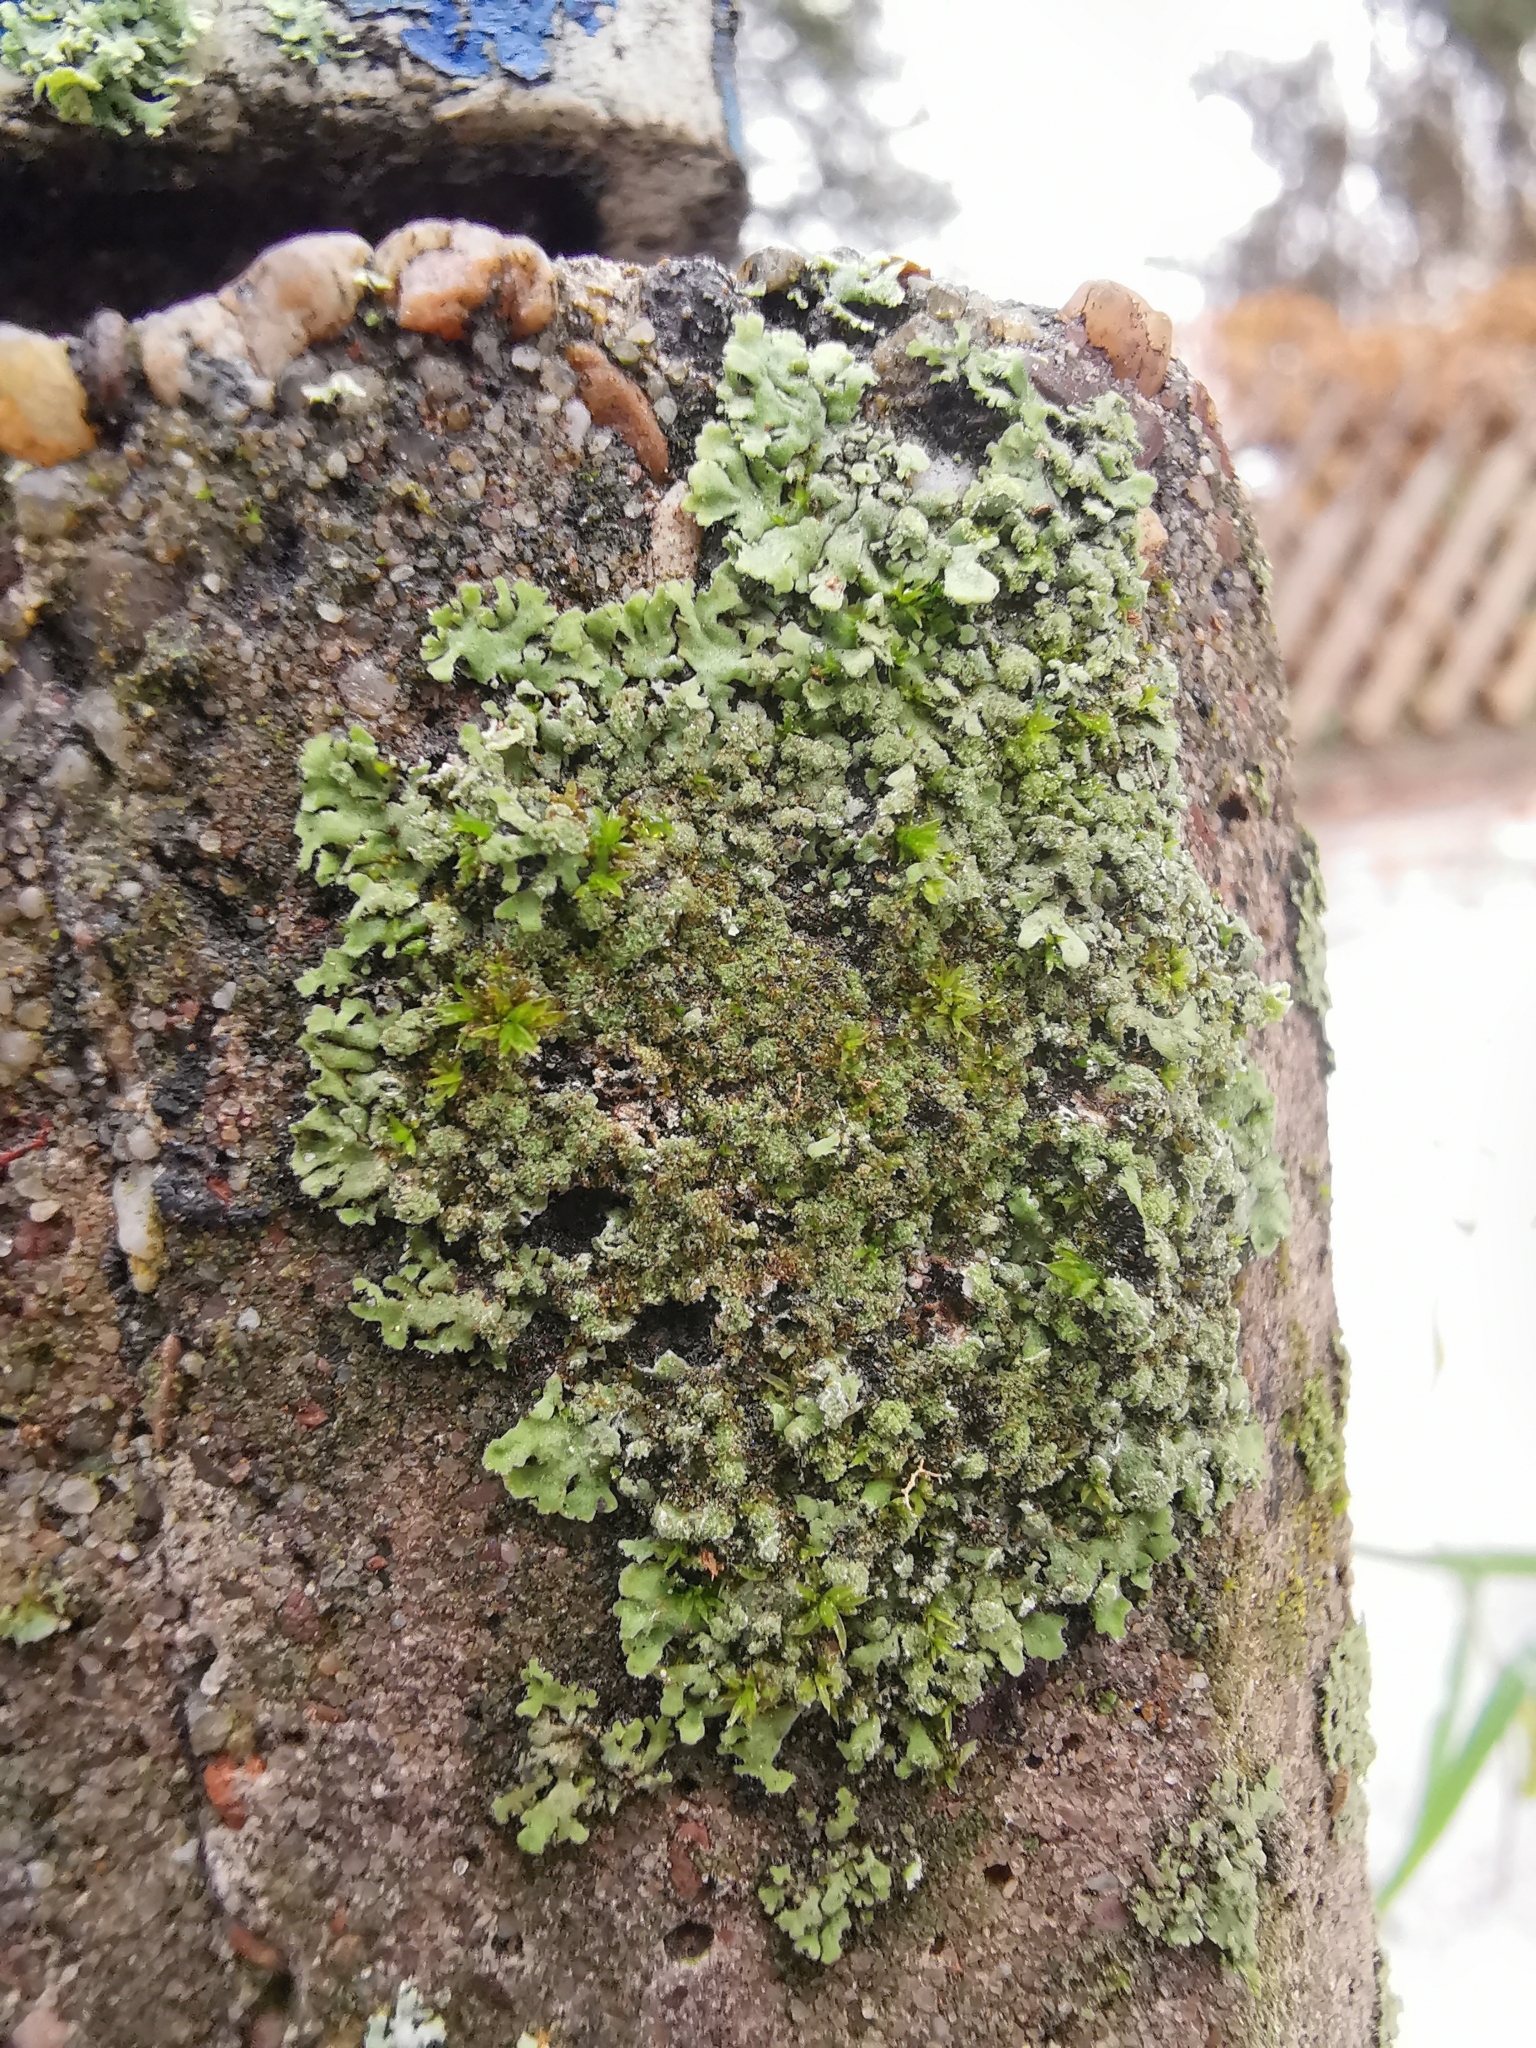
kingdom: Fungi
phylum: Ascomycota
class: Lecanoromycetes
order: Caliciales
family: Physciaceae
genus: Phaeophyscia
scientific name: Phaeophyscia orbicularis
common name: Mealy shadow lichen
